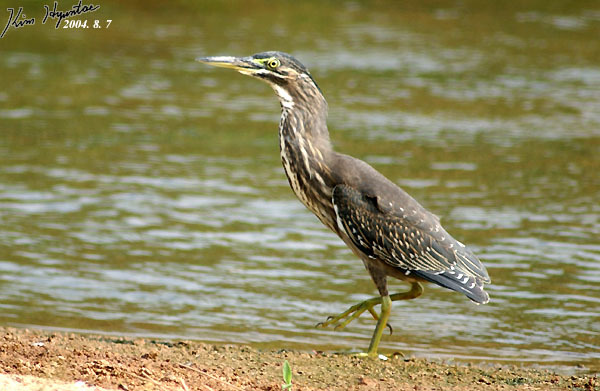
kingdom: Animalia
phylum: Chordata
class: Aves
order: Pelecaniformes
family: Ardeidae
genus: Butorides
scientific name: Butorides striata
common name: Striated heron
